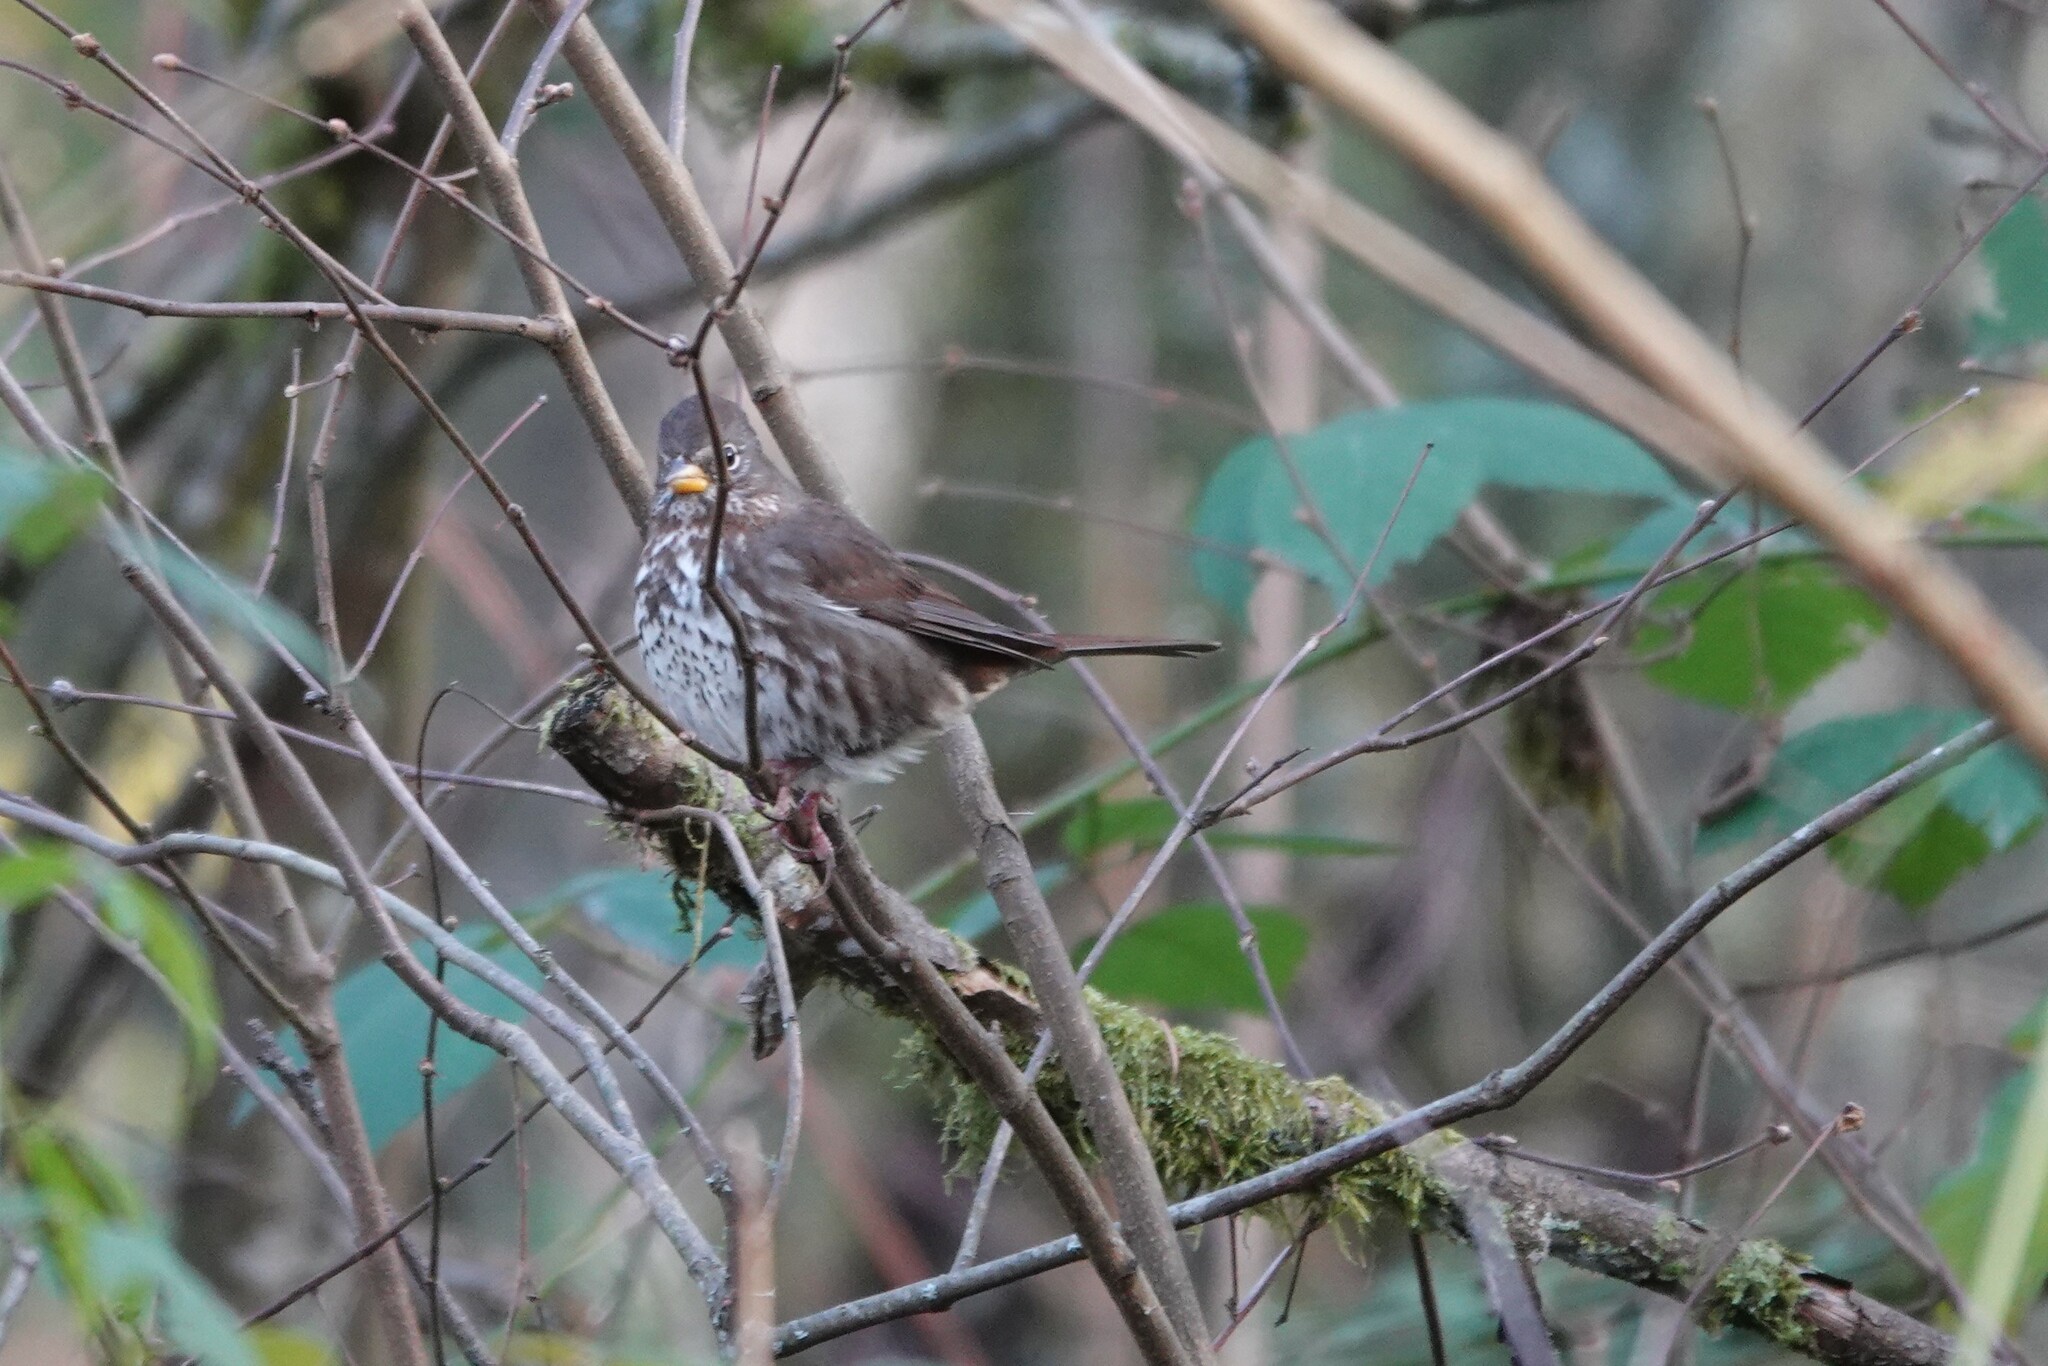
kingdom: Animalia
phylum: Chordata
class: Aves
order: Passeriformes
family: Passerellidae
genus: Passerella
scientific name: Passerella iliaca
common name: Fox sparrow
